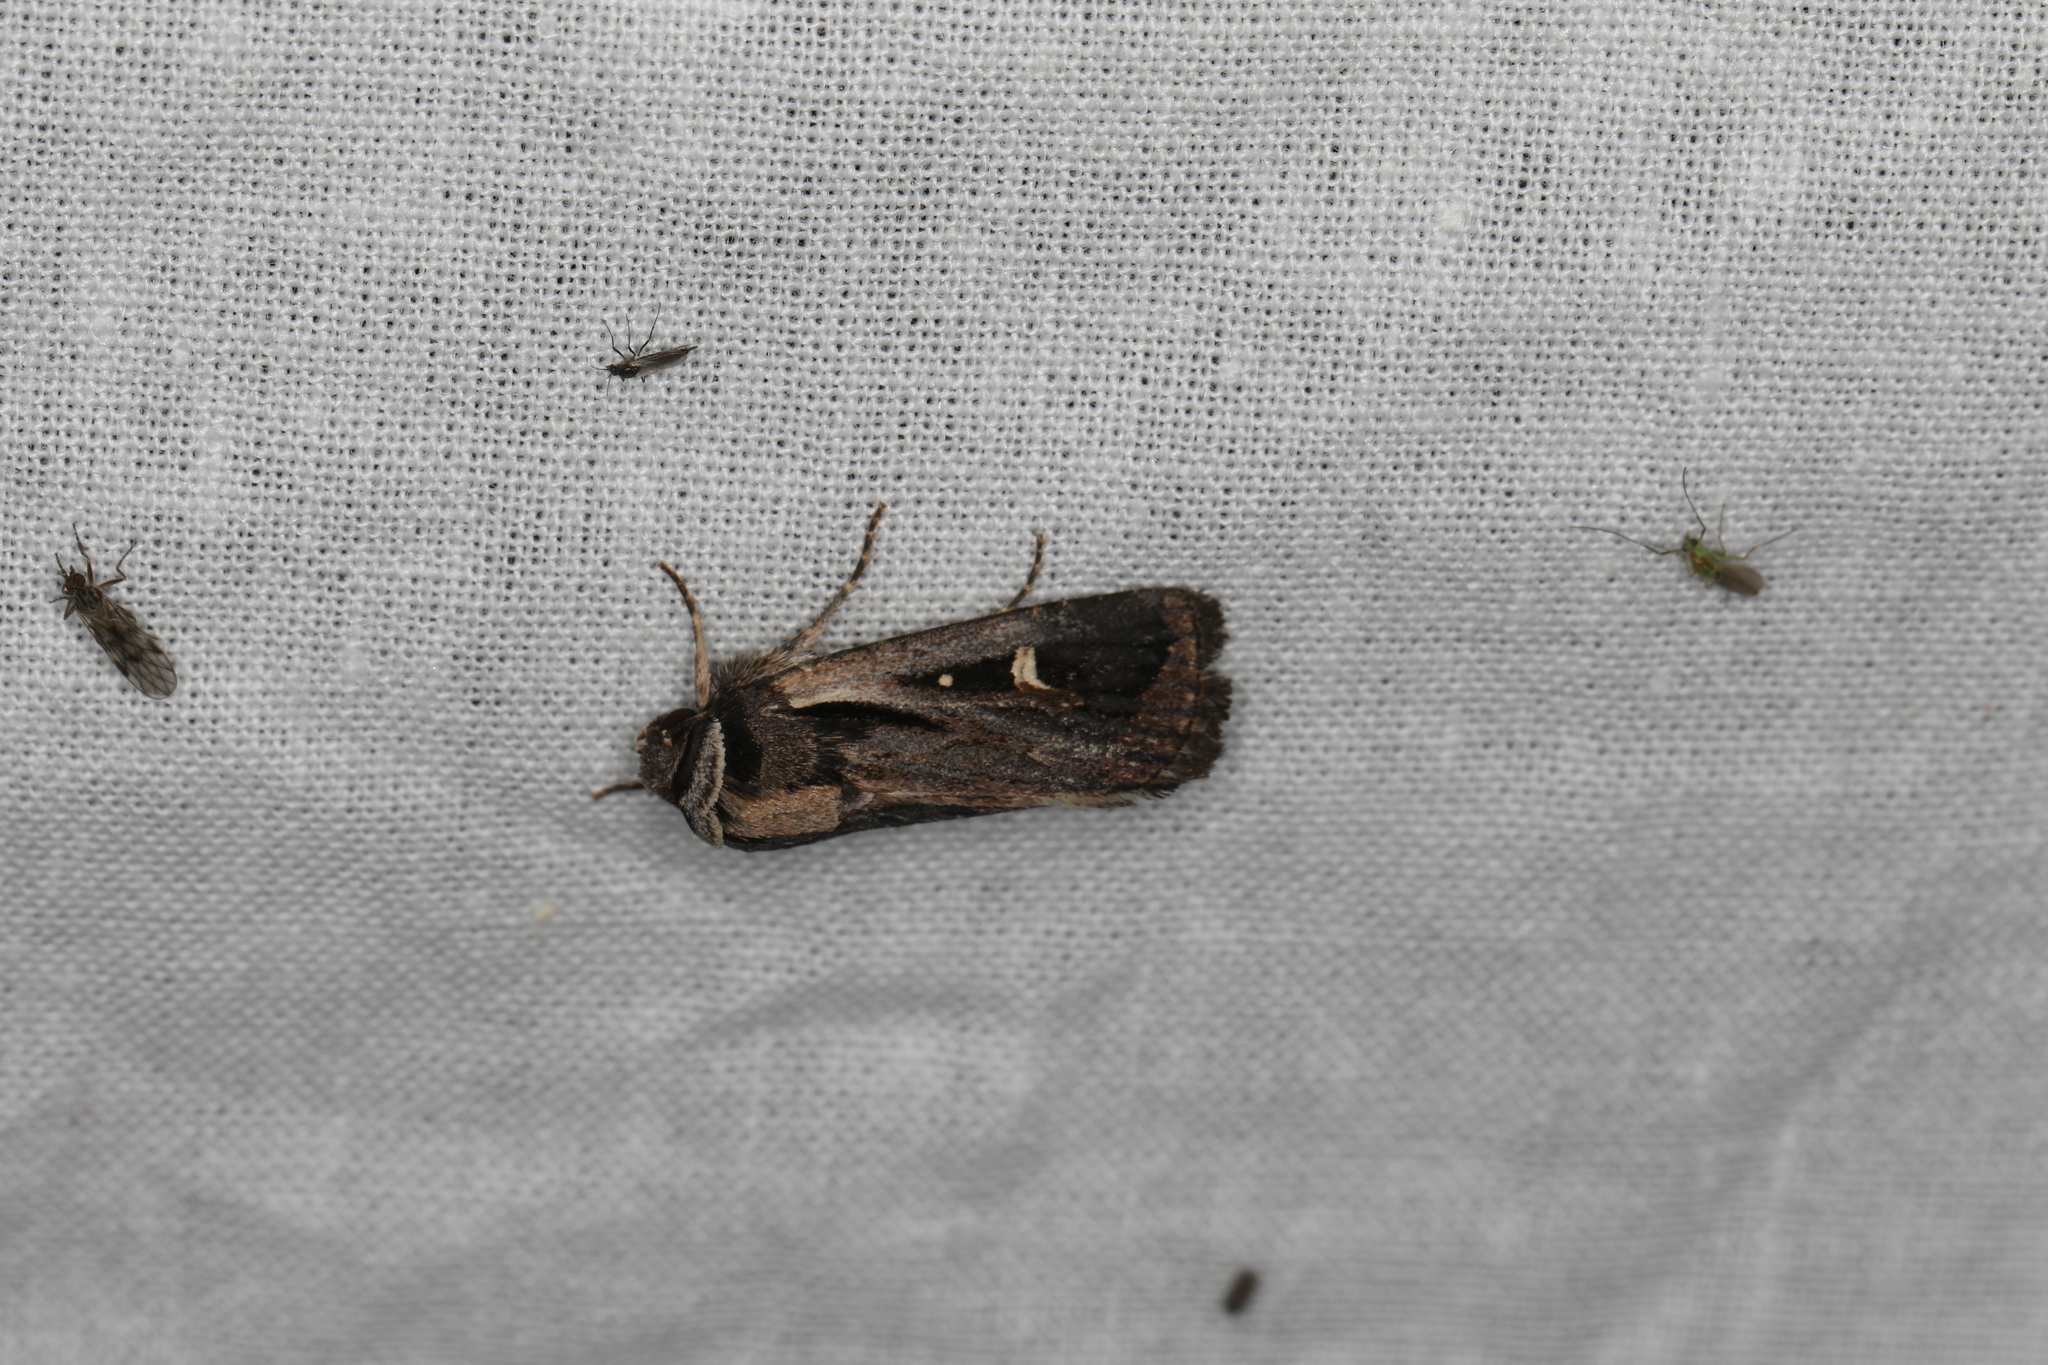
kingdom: Animalia
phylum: Arthropoda
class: Insecta
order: Lepidoptera
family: Noctuidae
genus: Proteuxoa
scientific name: Proteuxoa epiplecta
